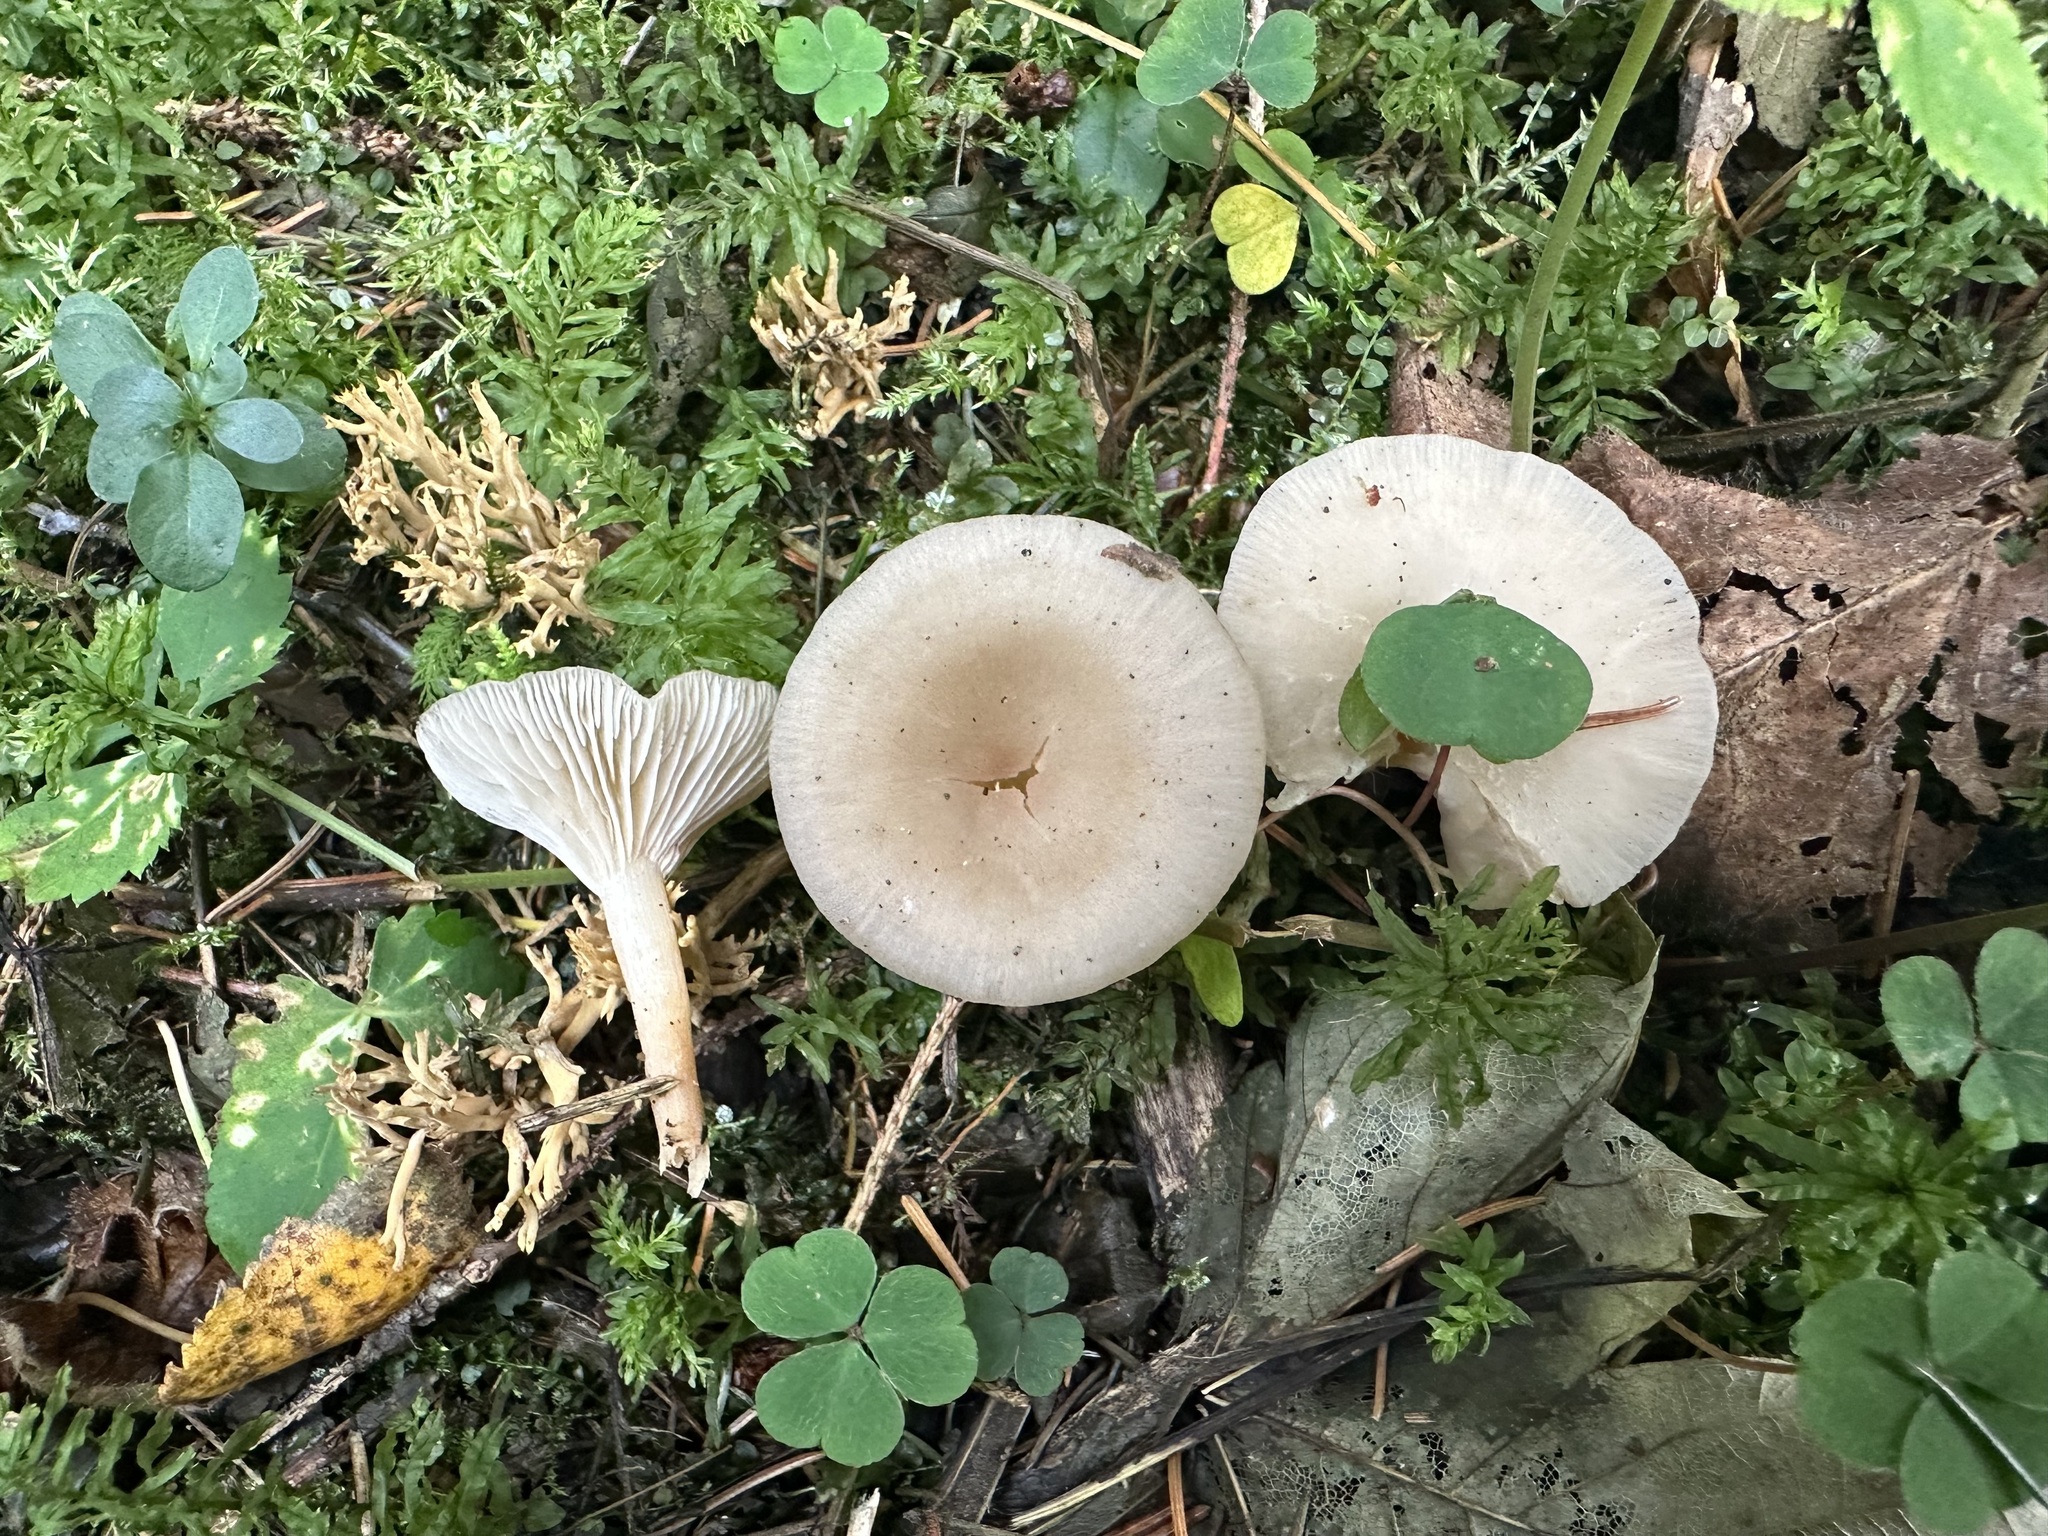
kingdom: Fungi
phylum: Basidiomycota
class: Agaricomycetes
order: Agaricales
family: Tricholomataceae
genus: Clitocybe
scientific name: Clitocybe phaeophthalma
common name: Chicken run funnel
